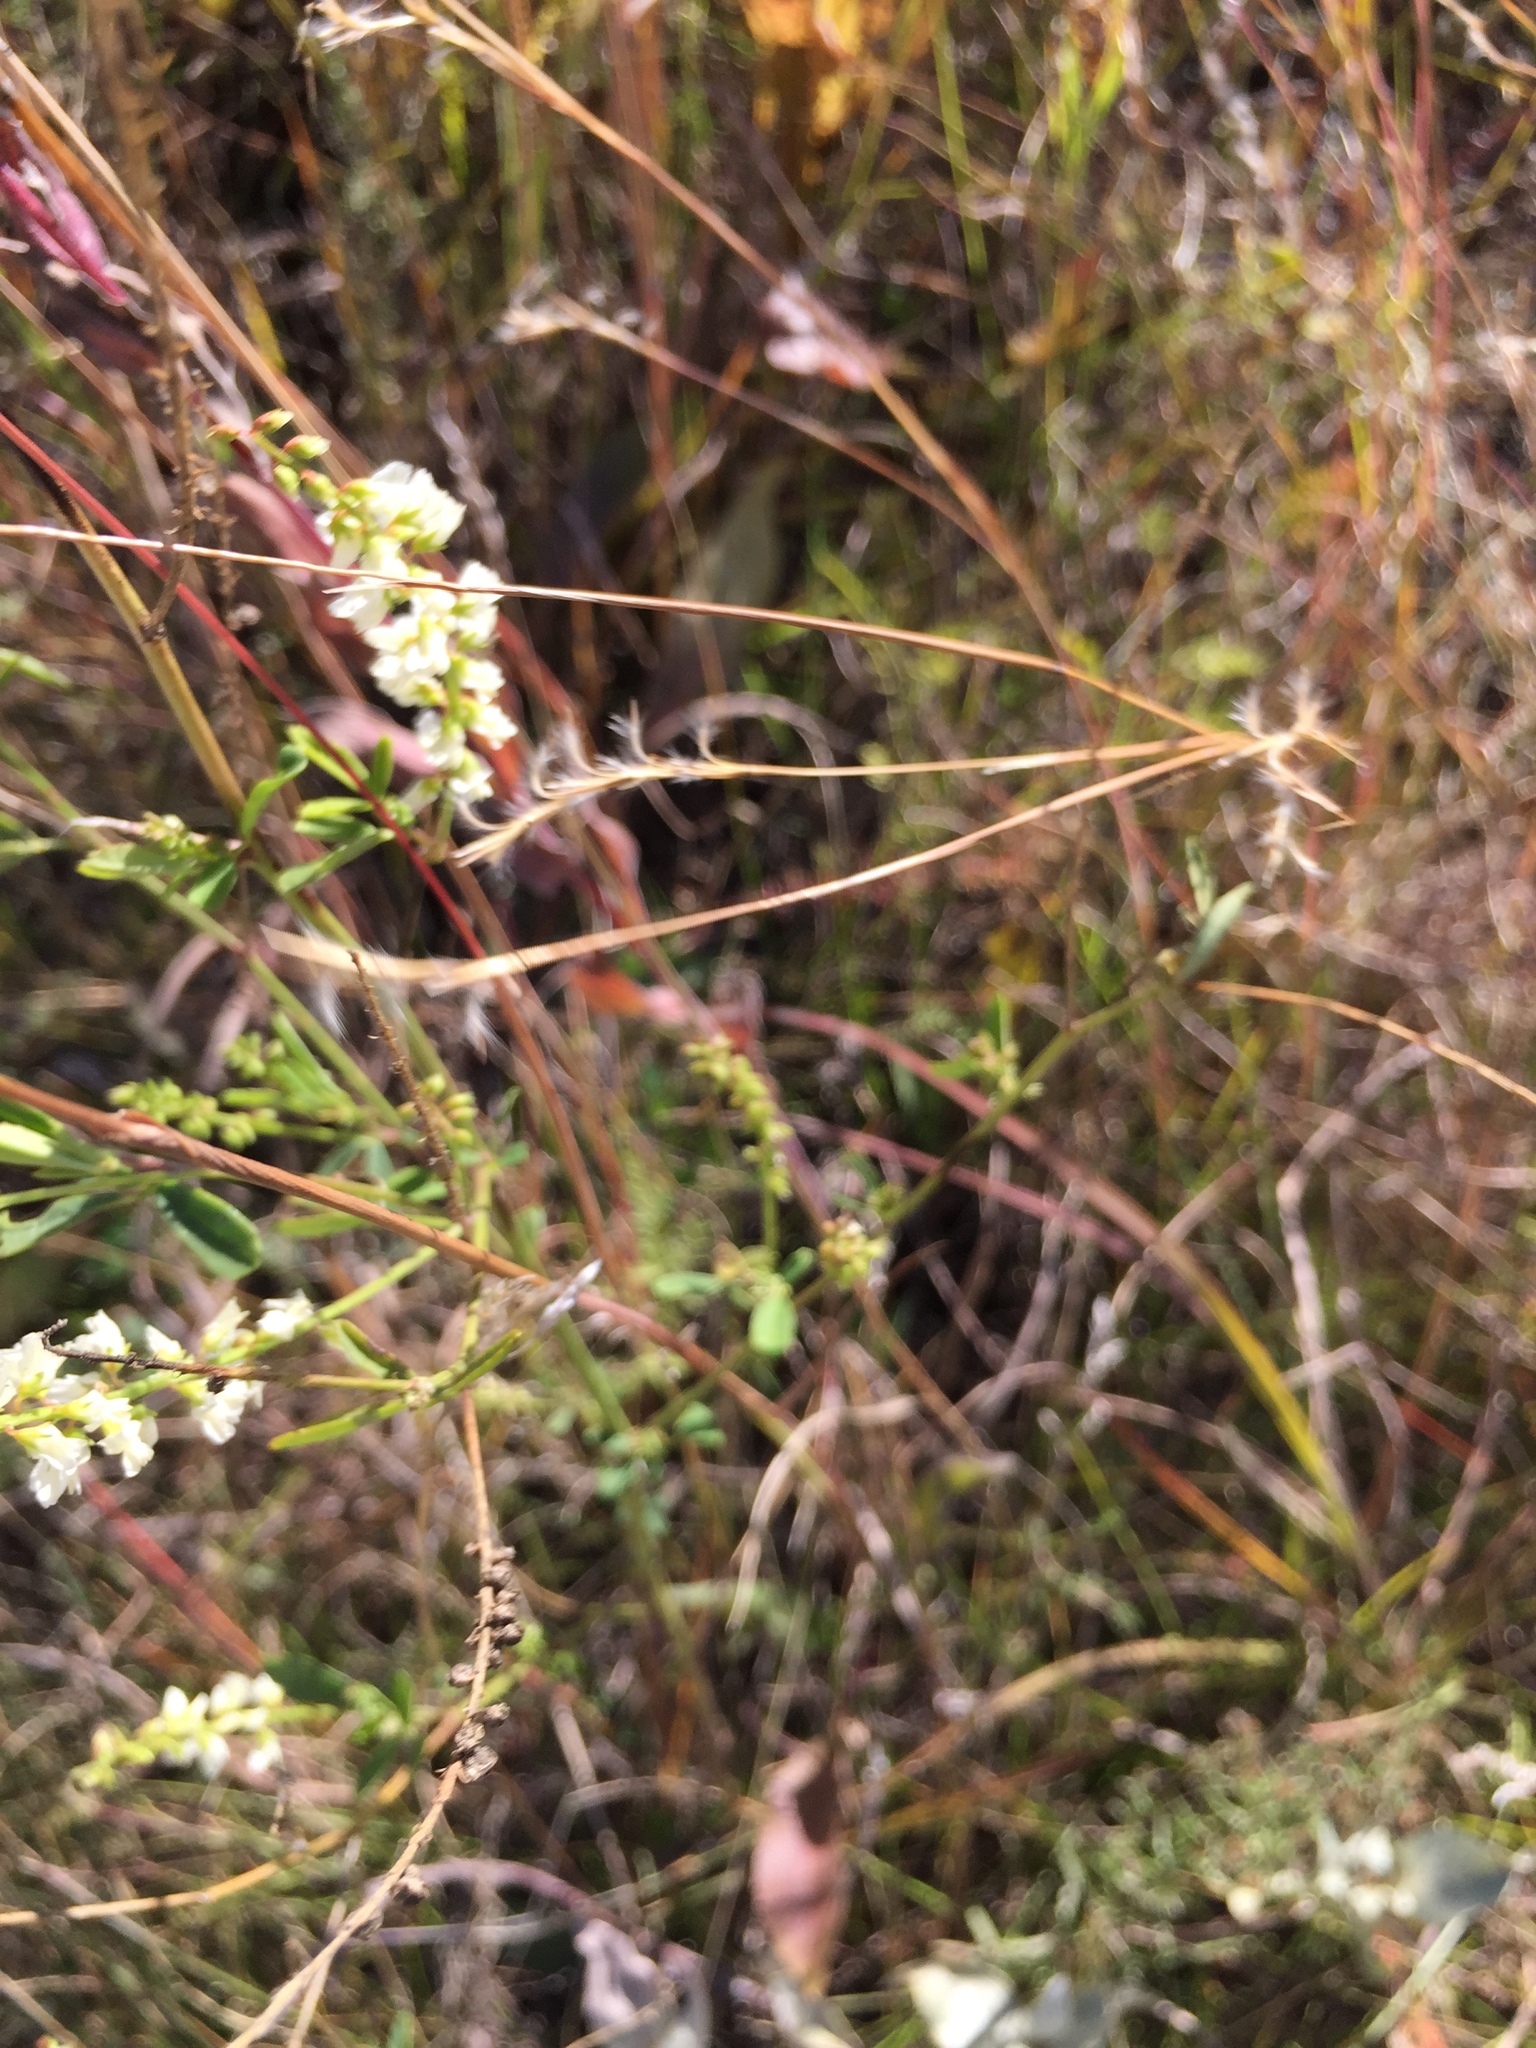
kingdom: Plantae
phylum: Tracheophyta
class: Magnoliopsida
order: Fabales
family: Fabaceae
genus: Melilotus
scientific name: Melilotus albus
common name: White melilot
